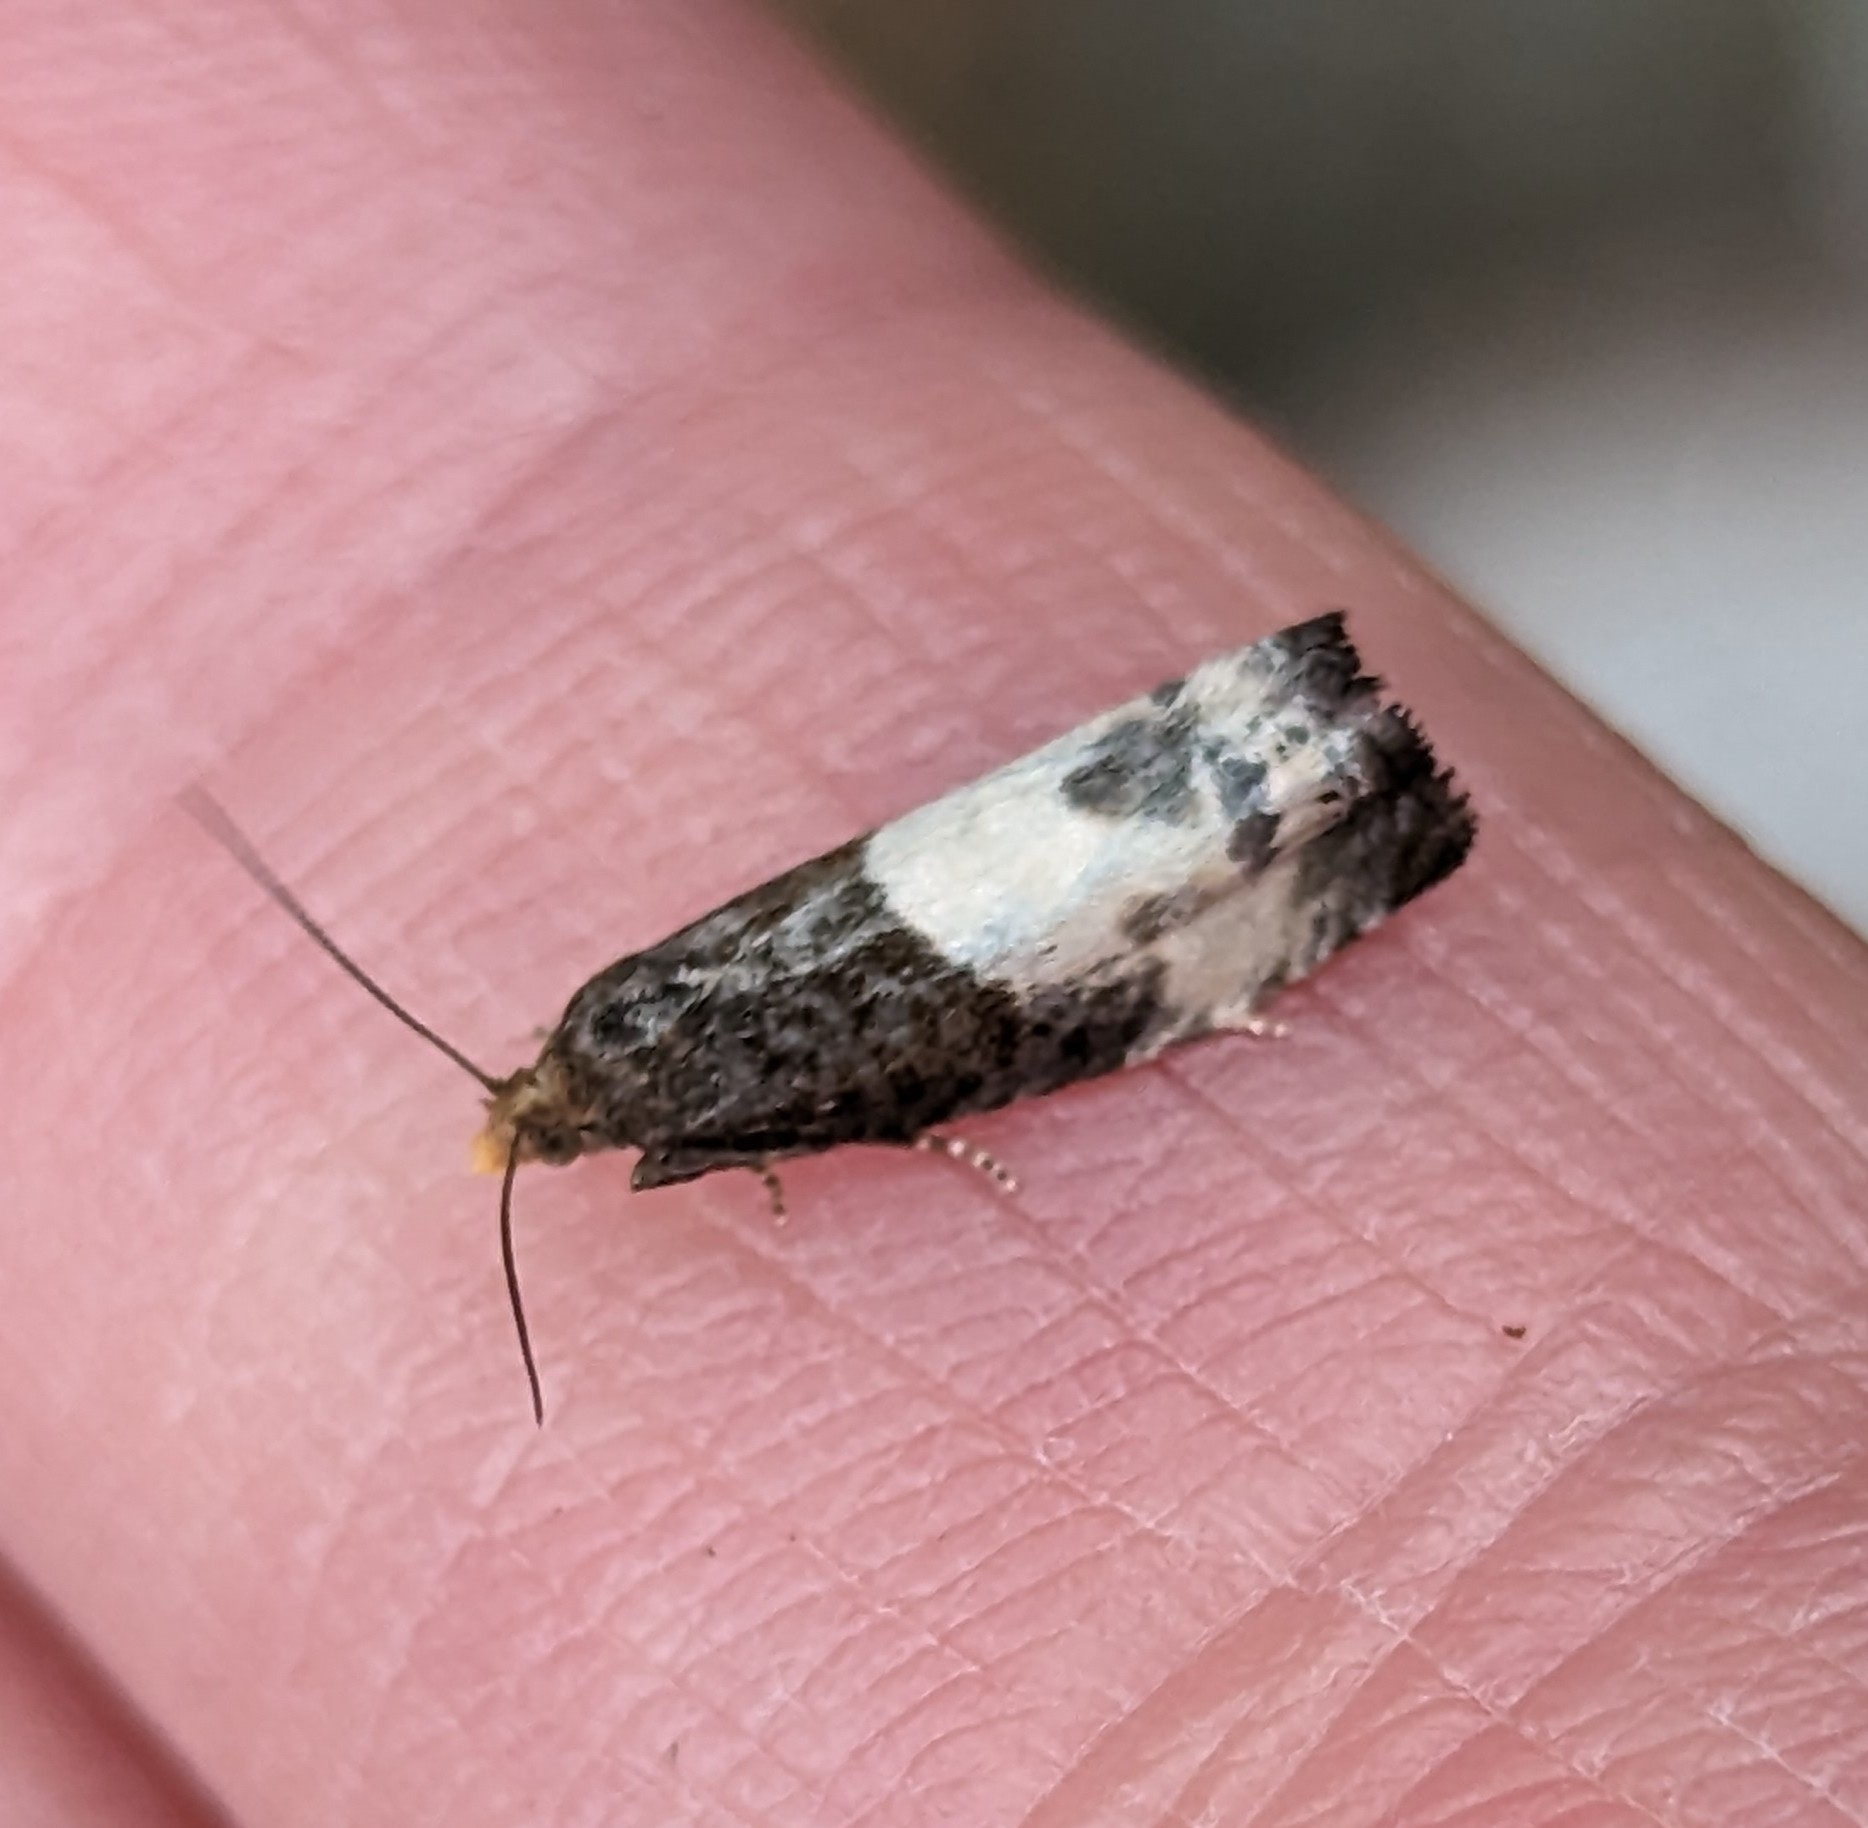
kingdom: Animalia
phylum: Arthropoda
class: Insecta
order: Lepidoptera
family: Tortricidae
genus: Notocelia
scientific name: Notocelia cynosbatella
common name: Yellow-faced bell moth
